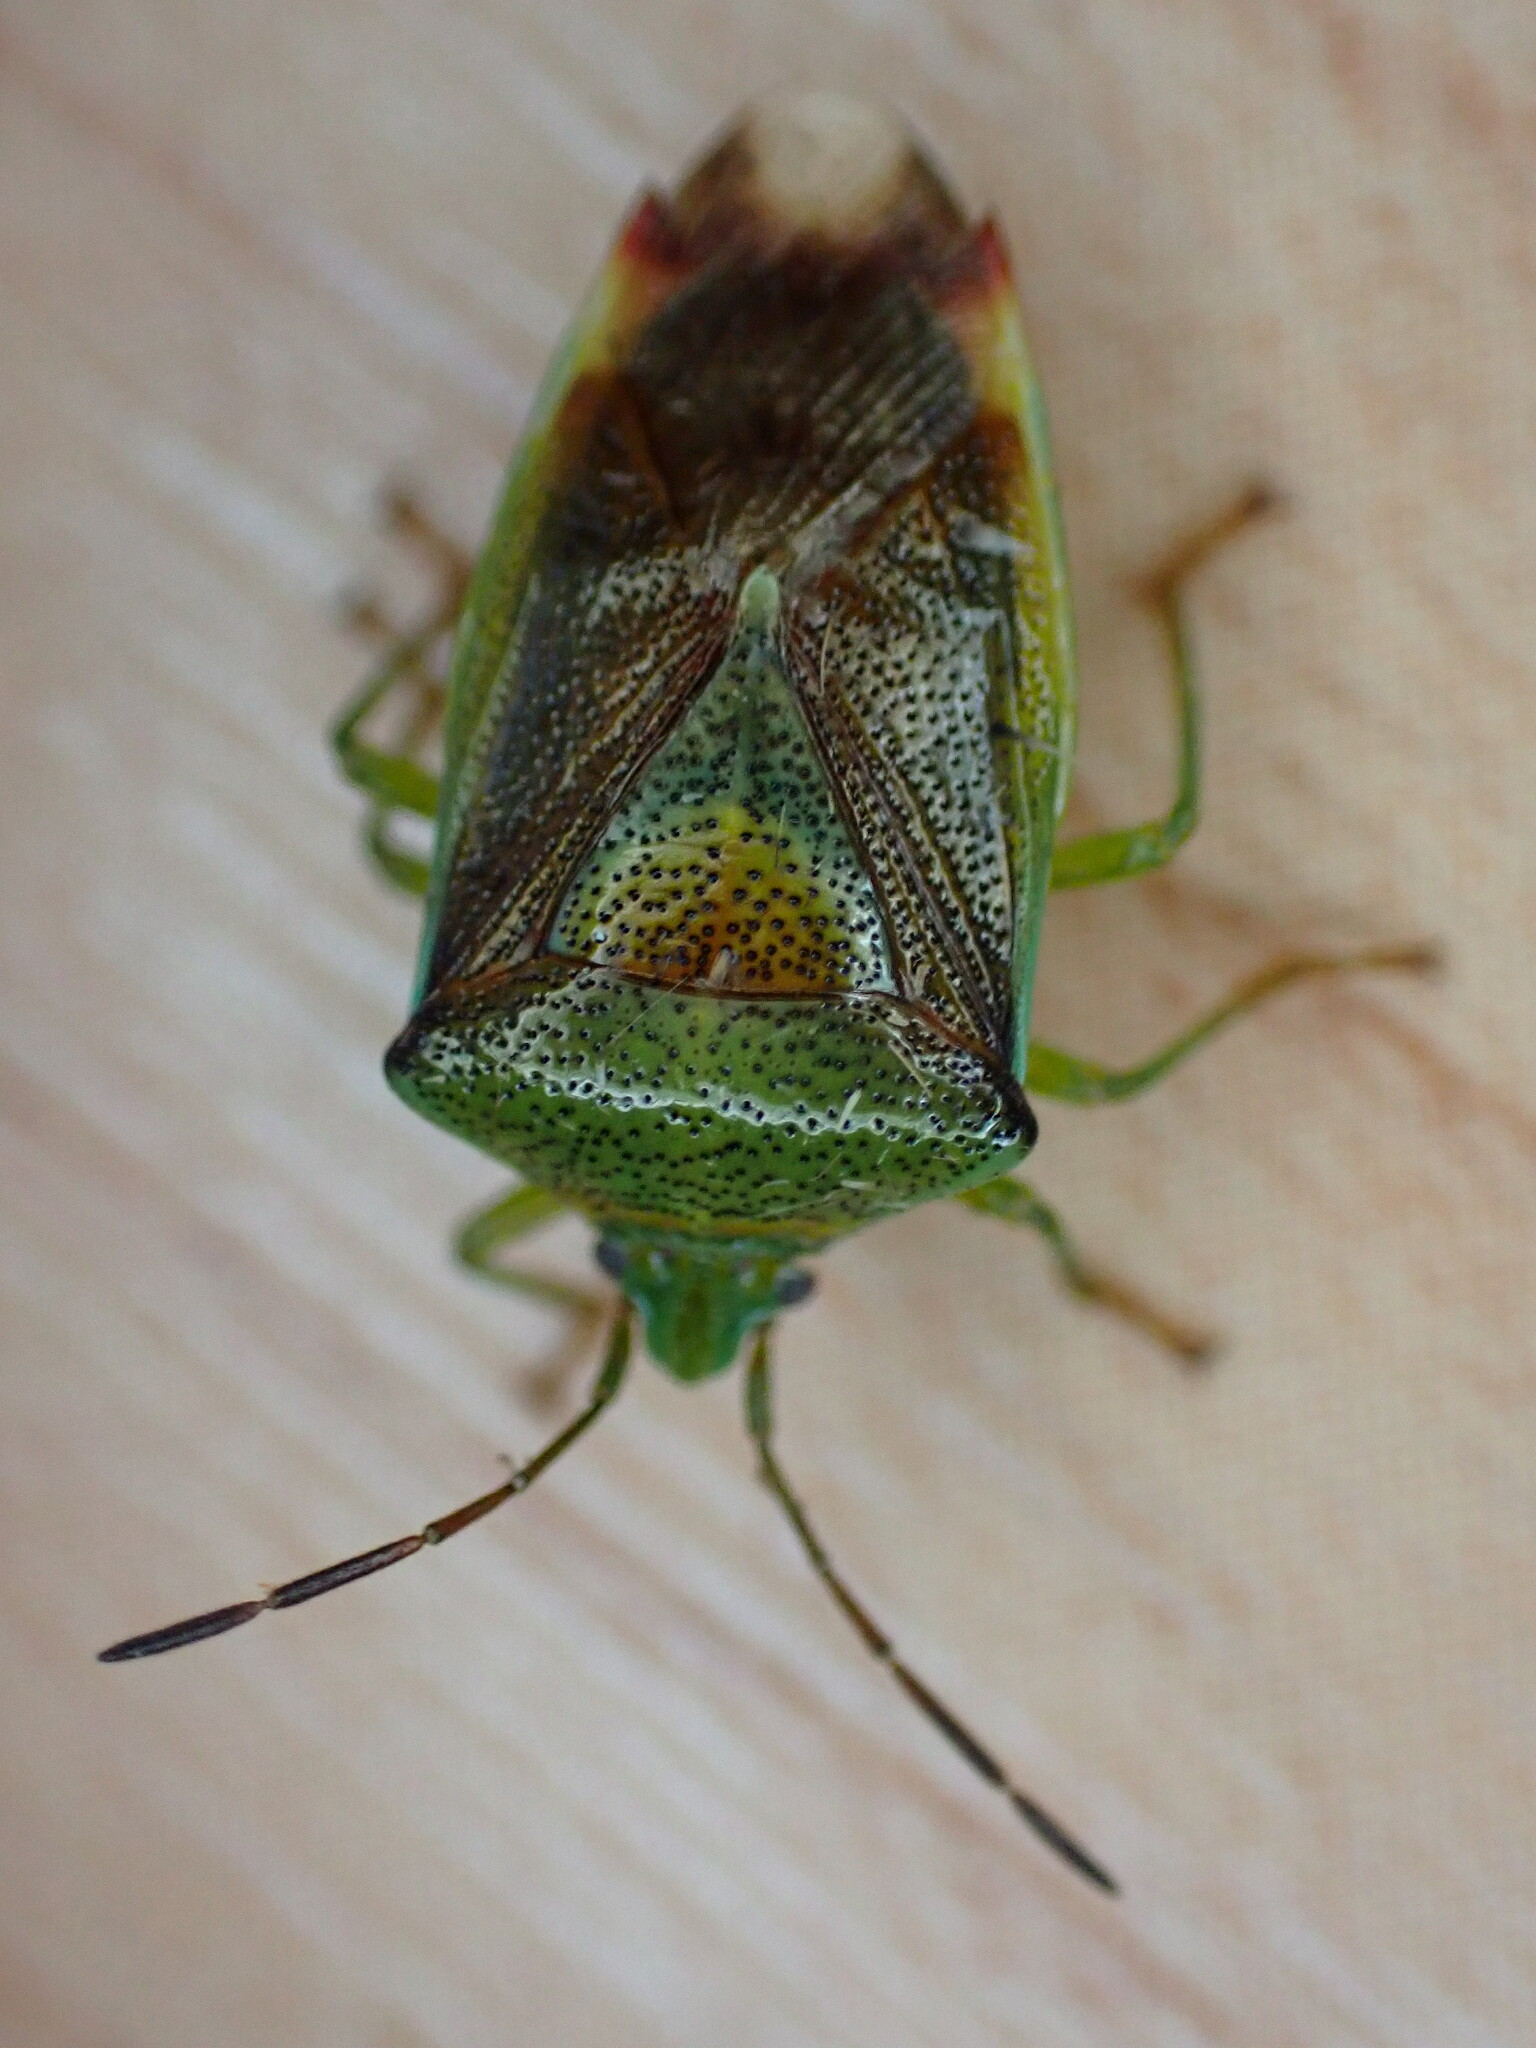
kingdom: Animalia
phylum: Arthropoda
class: Insecta
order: Hemiptera
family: Acanthosomatidae
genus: Elasmostethus
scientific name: Elasmostethus interstinctus
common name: Birch shieldbug
